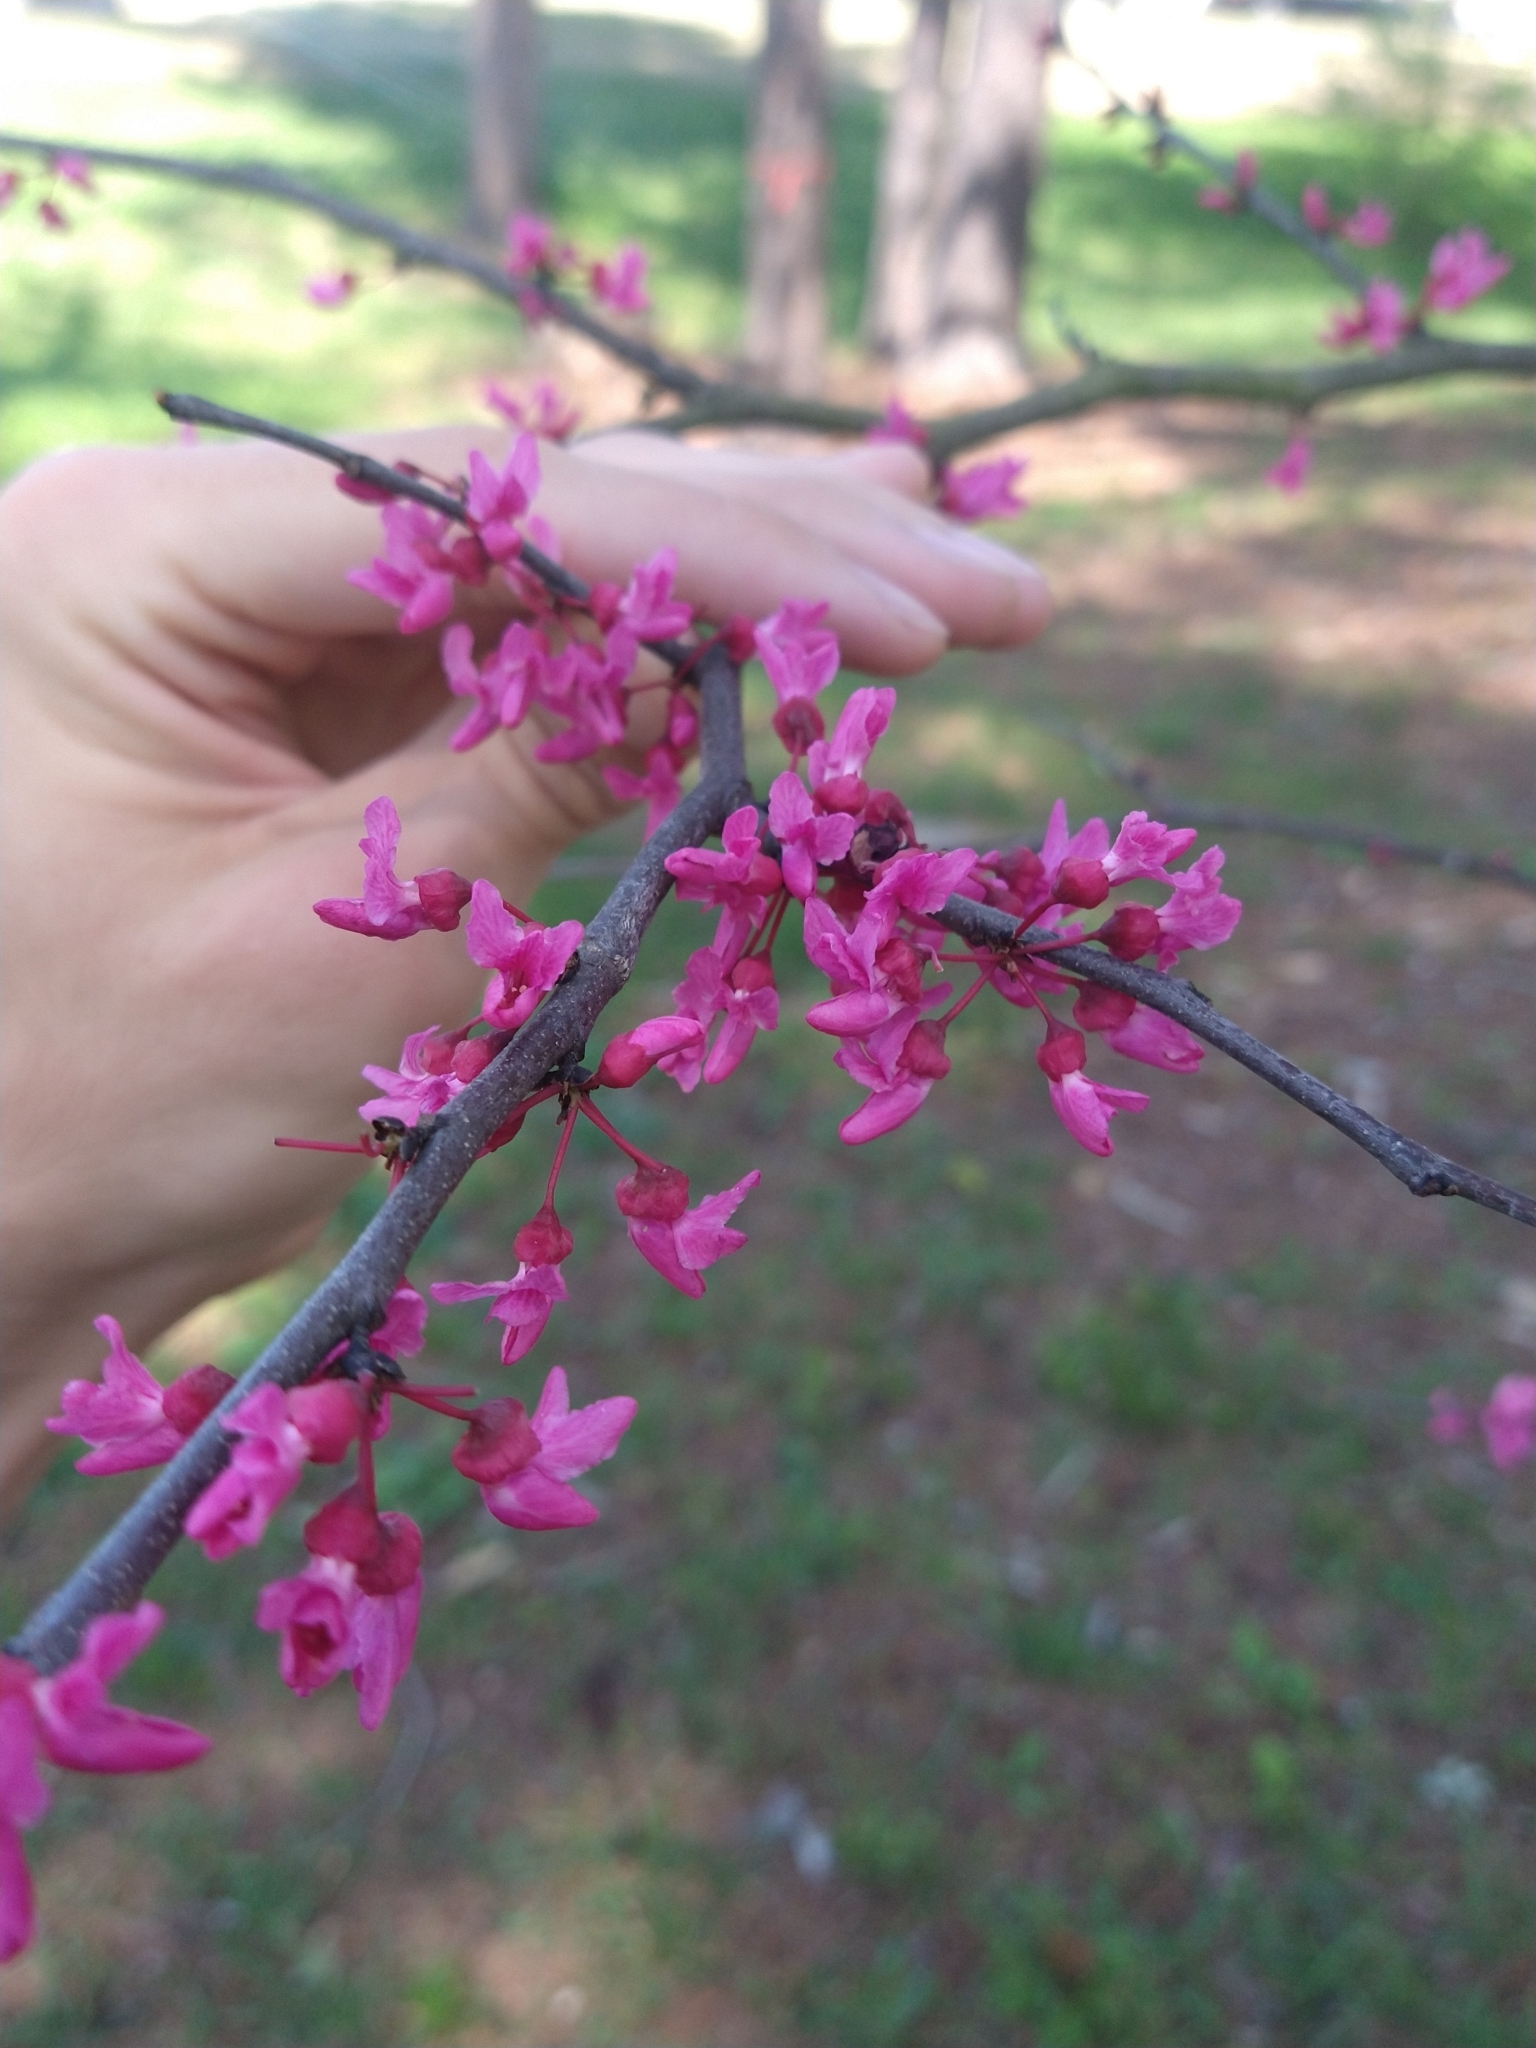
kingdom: Plantae
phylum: Tracheophyta
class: Magnoliopsida
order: Fabales
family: Fabaceae
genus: Cercis
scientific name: Cercis canadensis
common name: Eastern redbud
